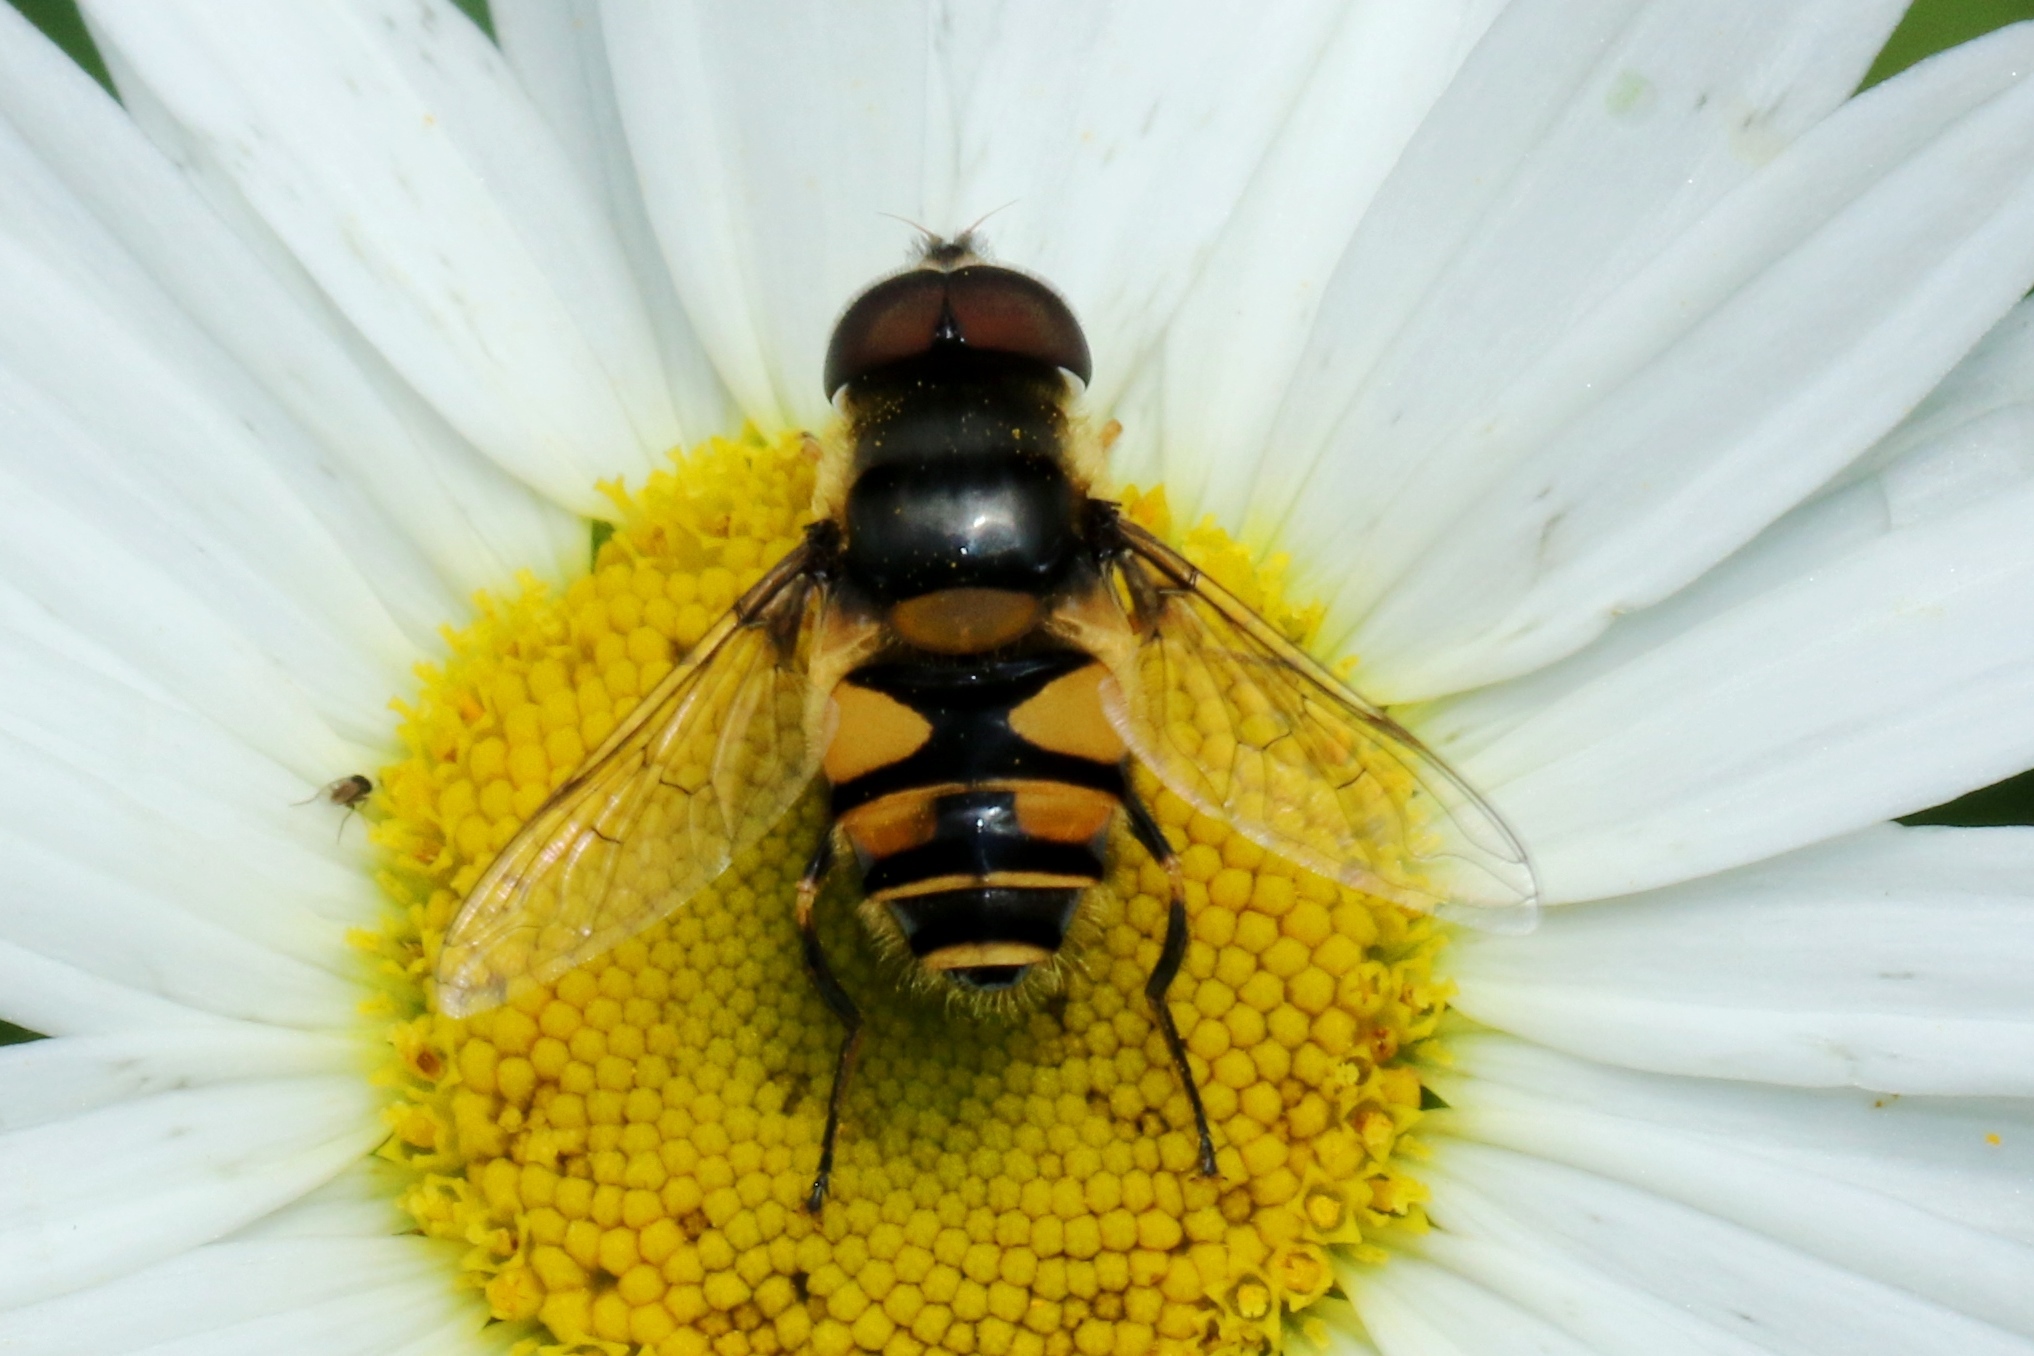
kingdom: Animalia
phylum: Arthropoda
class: Insecta
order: Diptera
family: Syrphidae
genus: Eristalis
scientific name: Eristalis transversa
